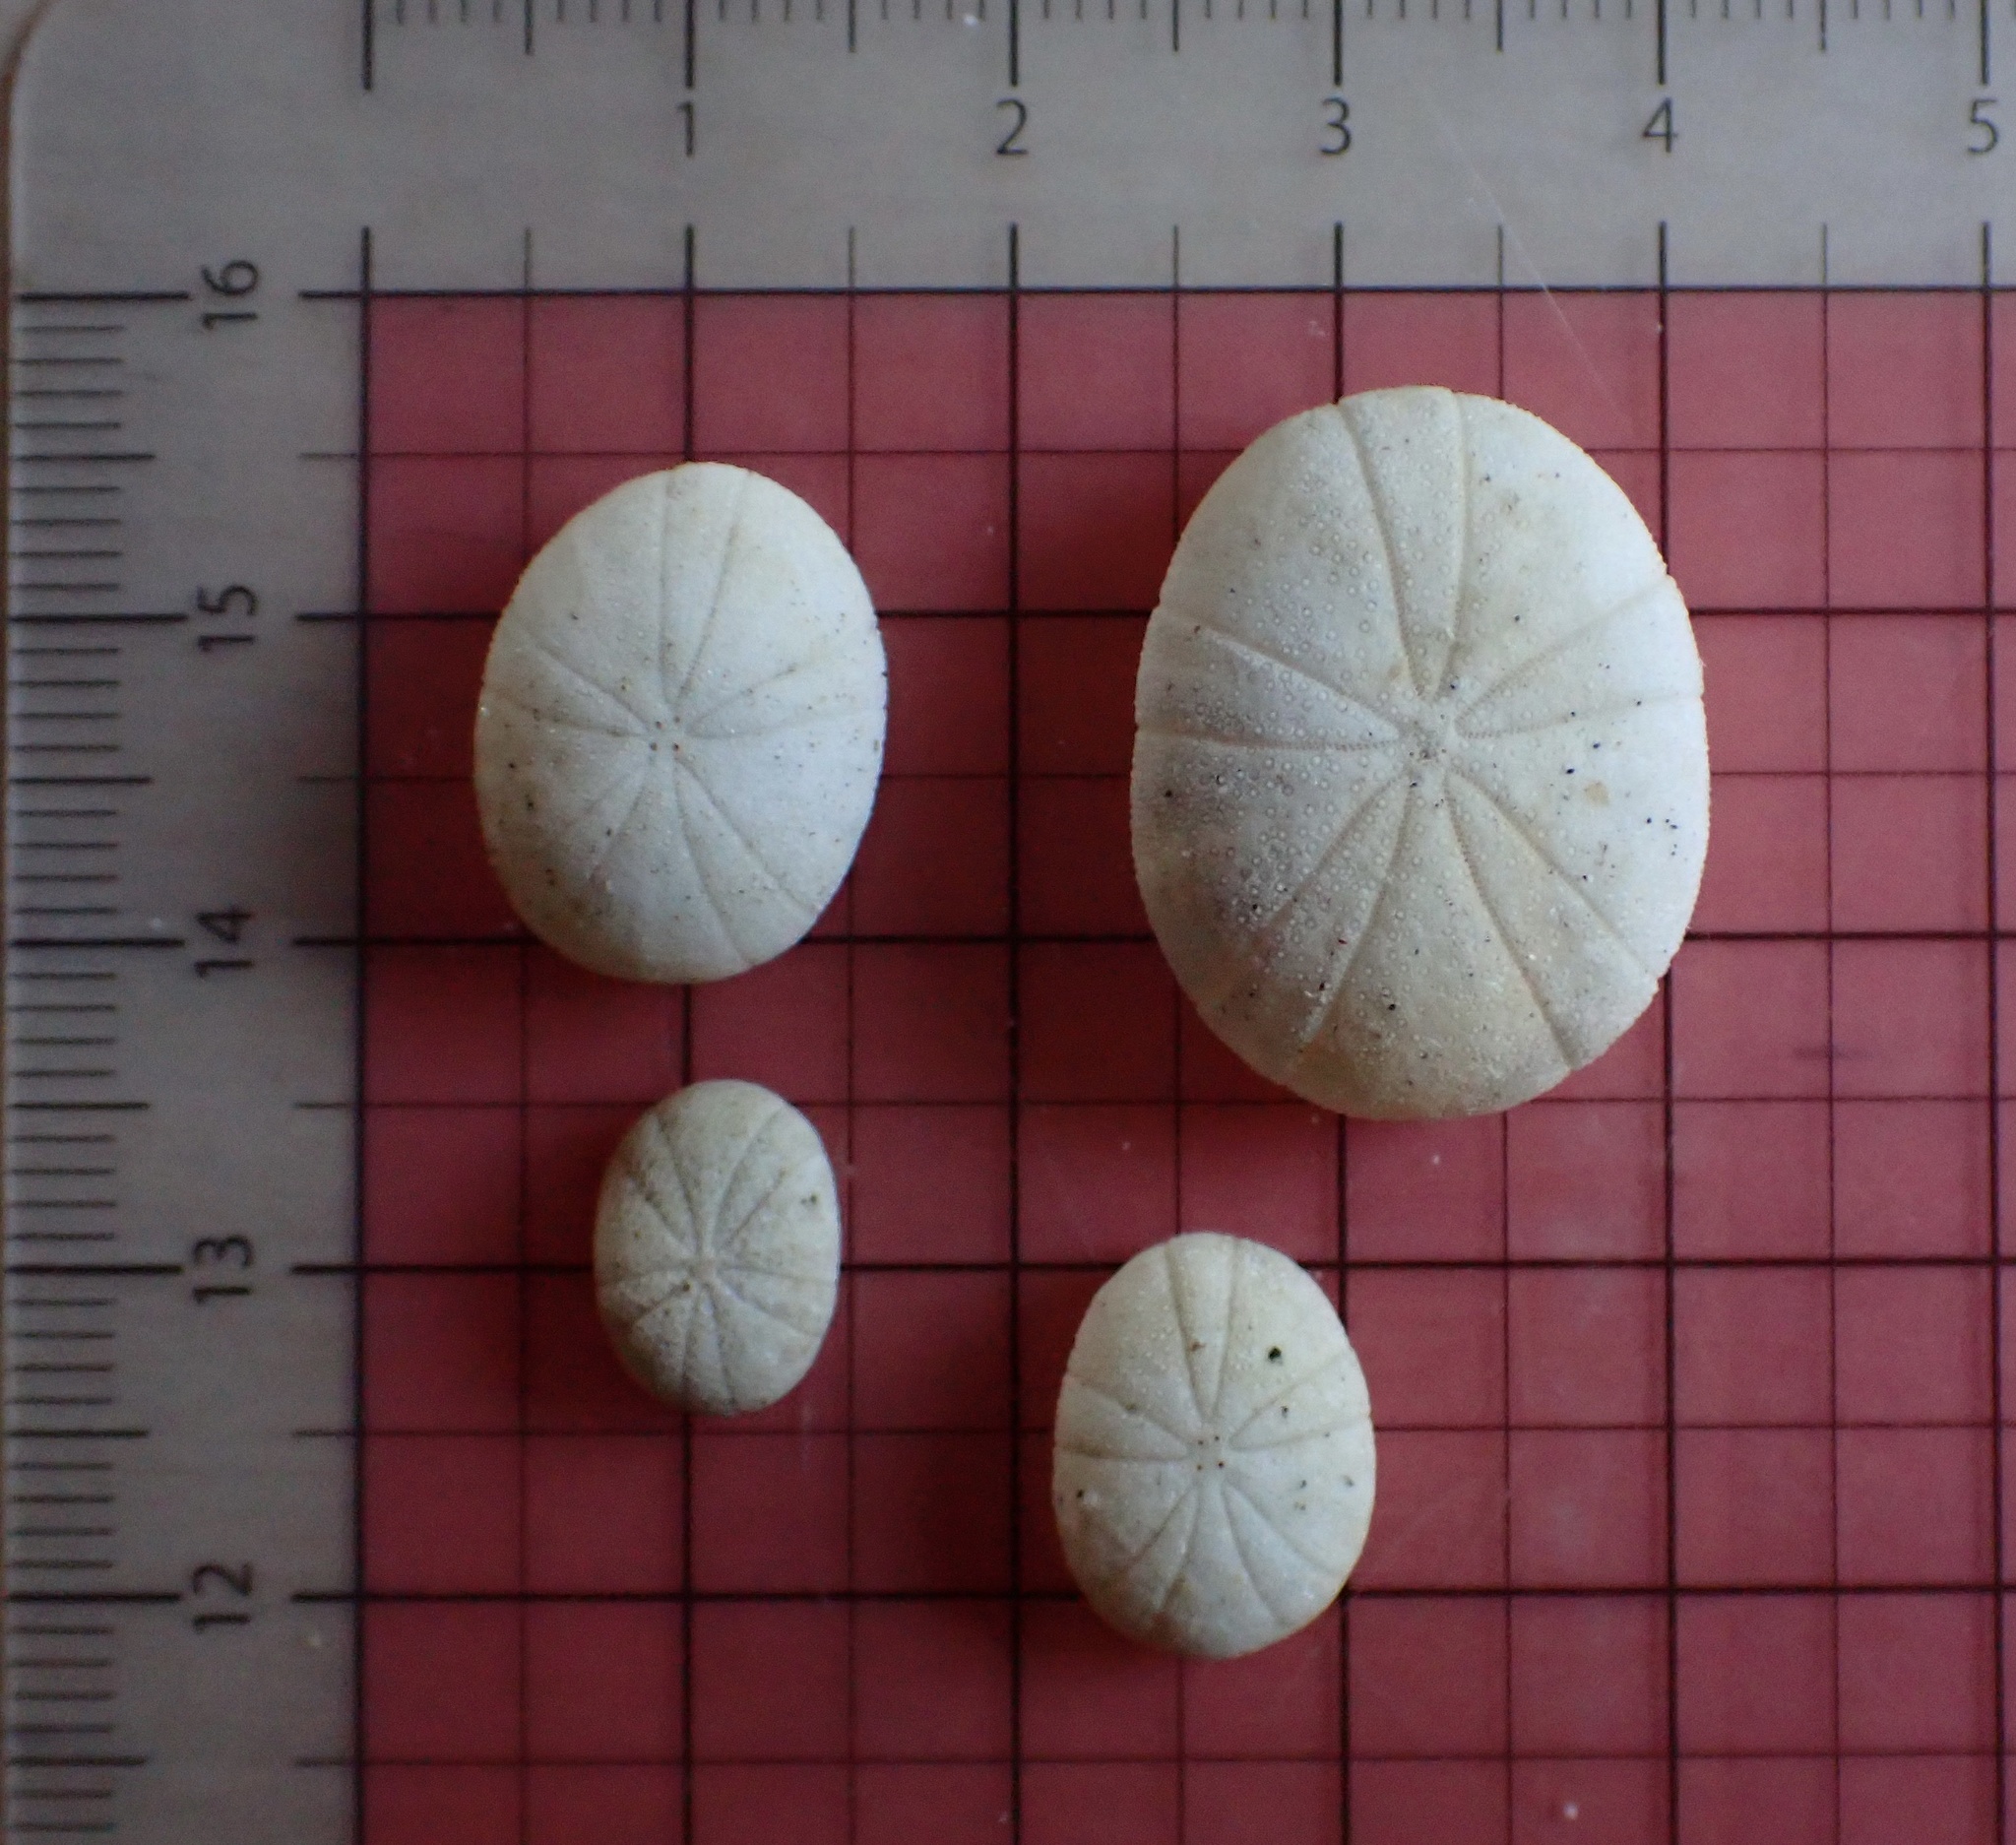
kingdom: Animalia
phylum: Echinodermata
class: Echinoidea
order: Echinoneoida
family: Echinoneidae
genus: Echinoneus
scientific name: Echinoneus cyclostomus
